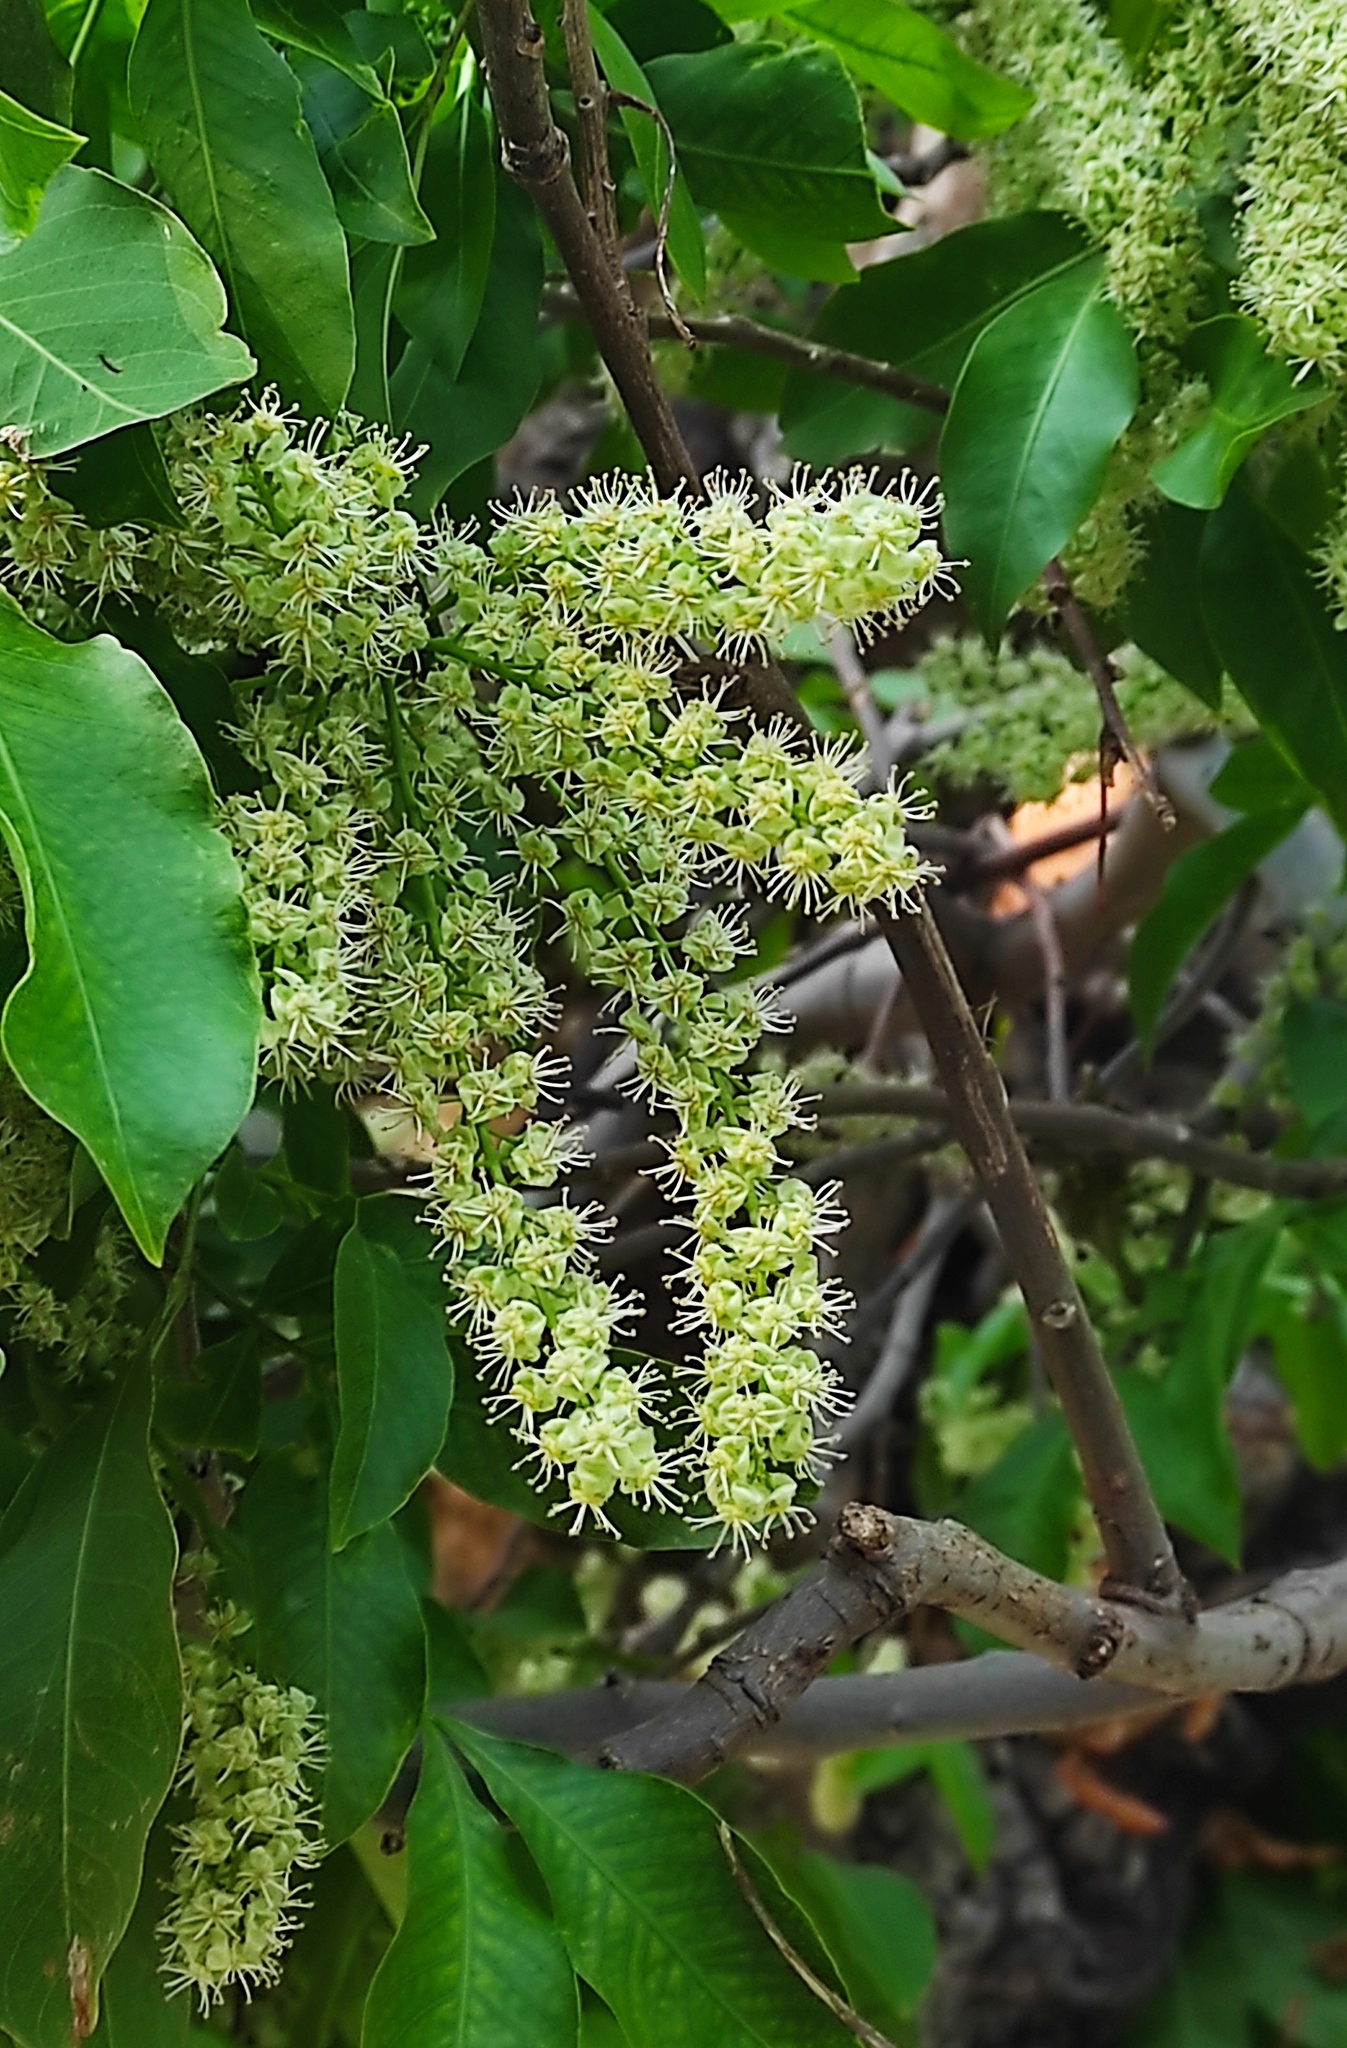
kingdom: Plantae
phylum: Tracheophyta
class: Magnoliopsida
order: Sapindales
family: Sapindaceae
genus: Melicoccus
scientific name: Melicoccus bijugatus
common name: Spanish lime
